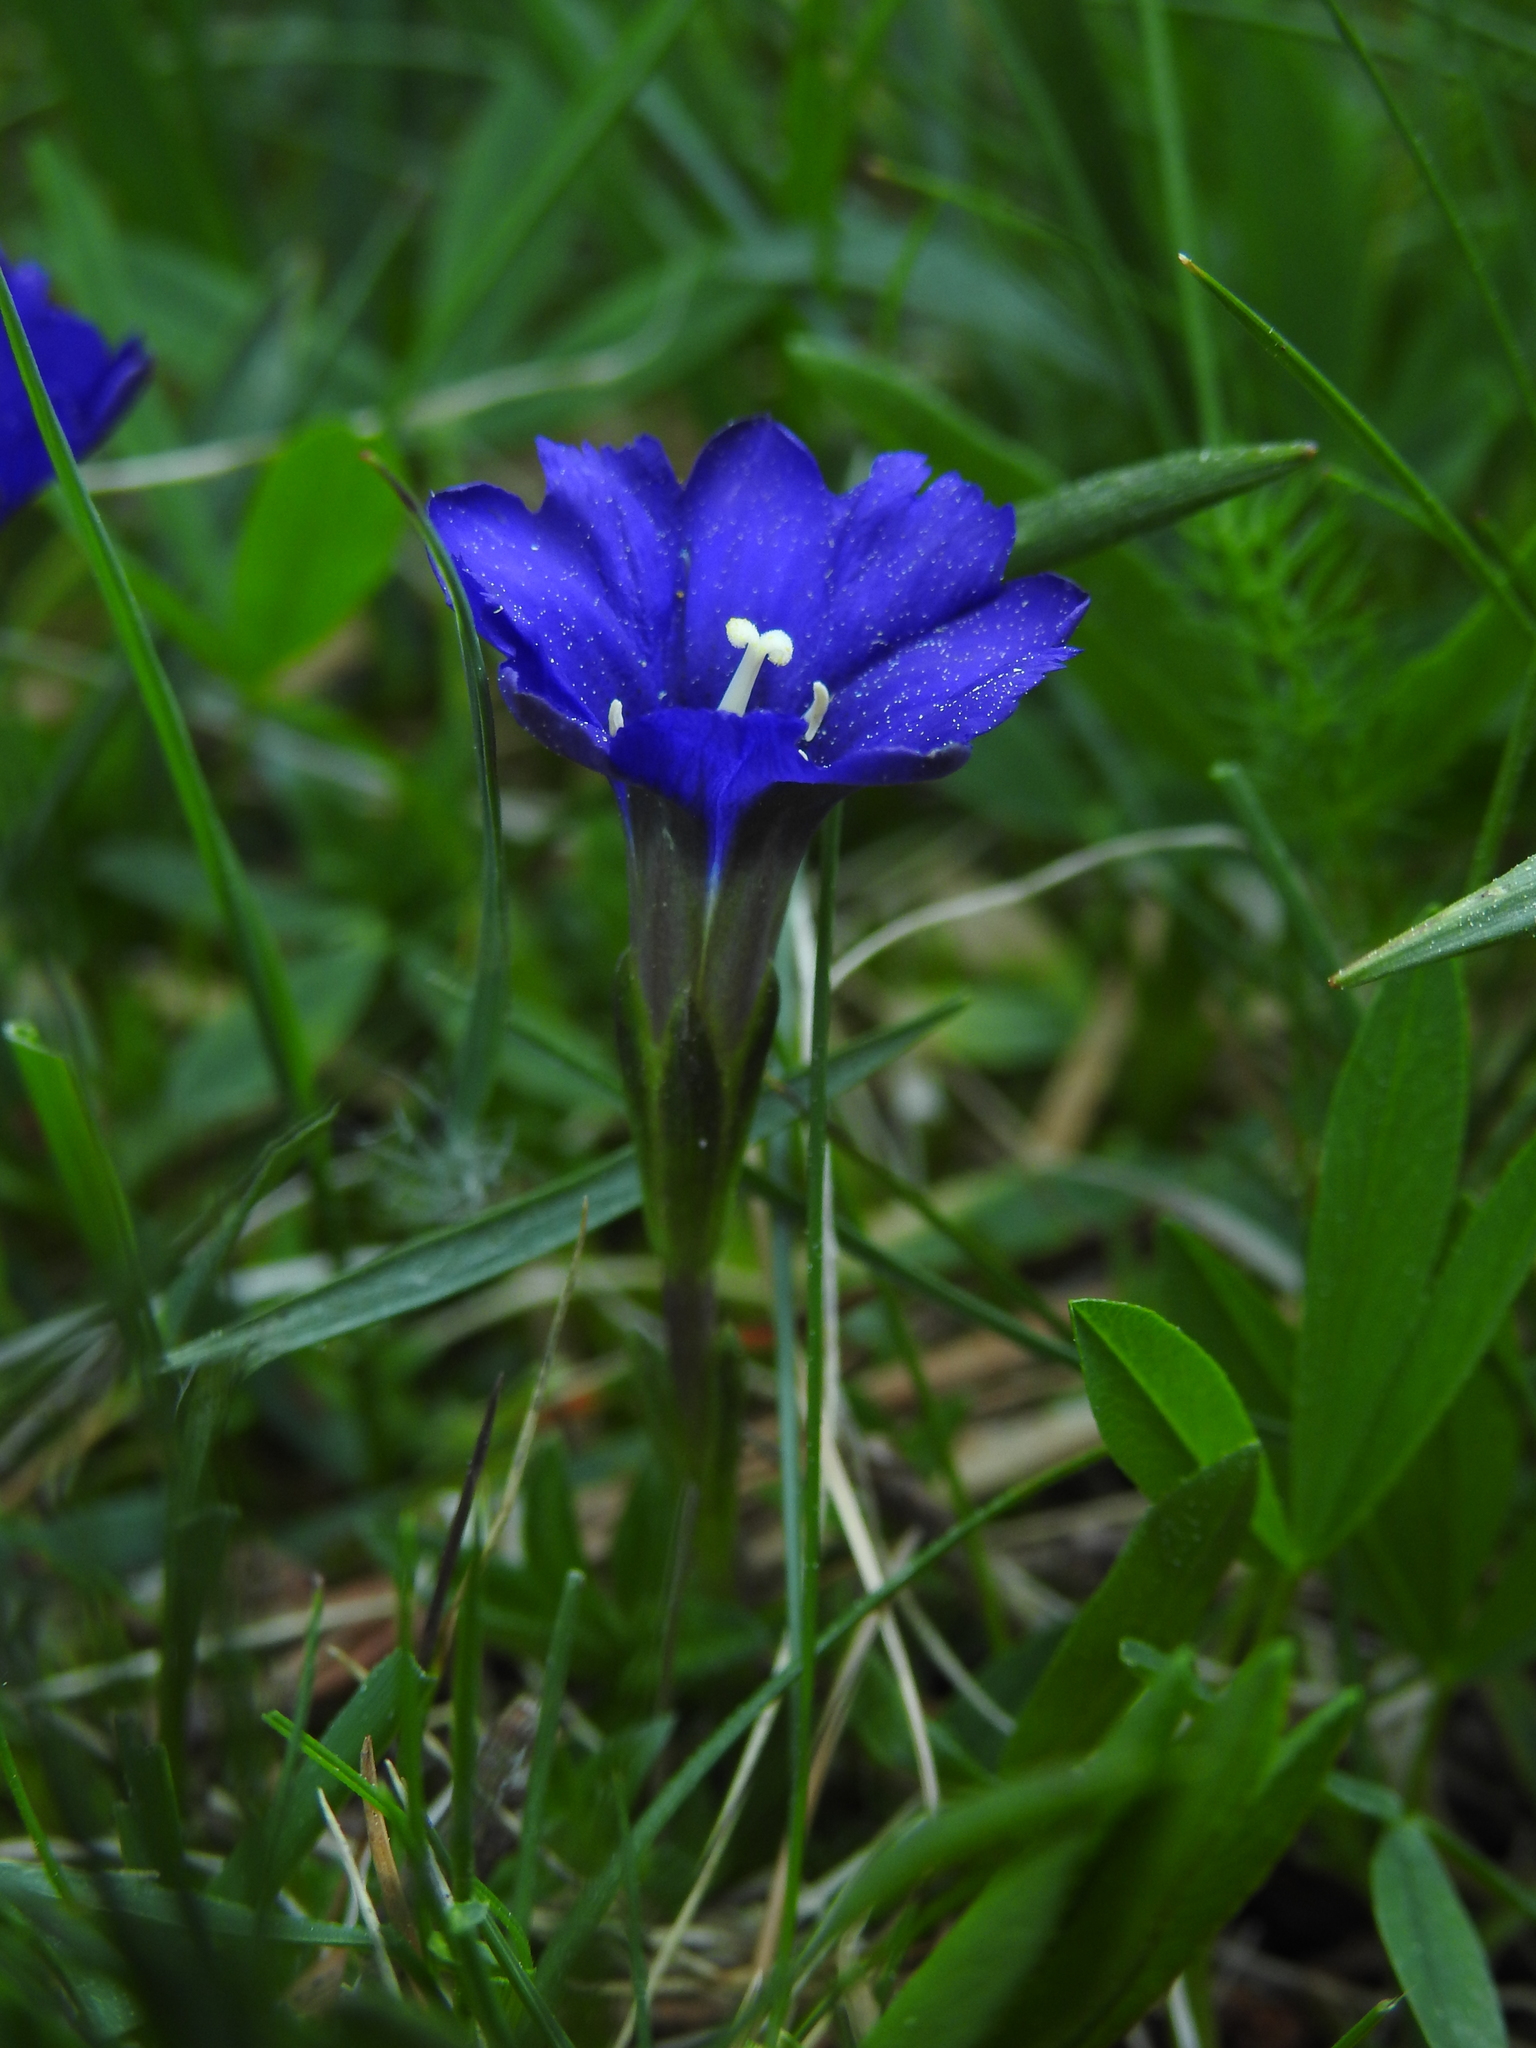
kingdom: Plantae
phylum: Tracheophyta
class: Magnoliopsida
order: Gentianales
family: Gentianaceae
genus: Gentiana
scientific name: Gentiana pyrenaica
